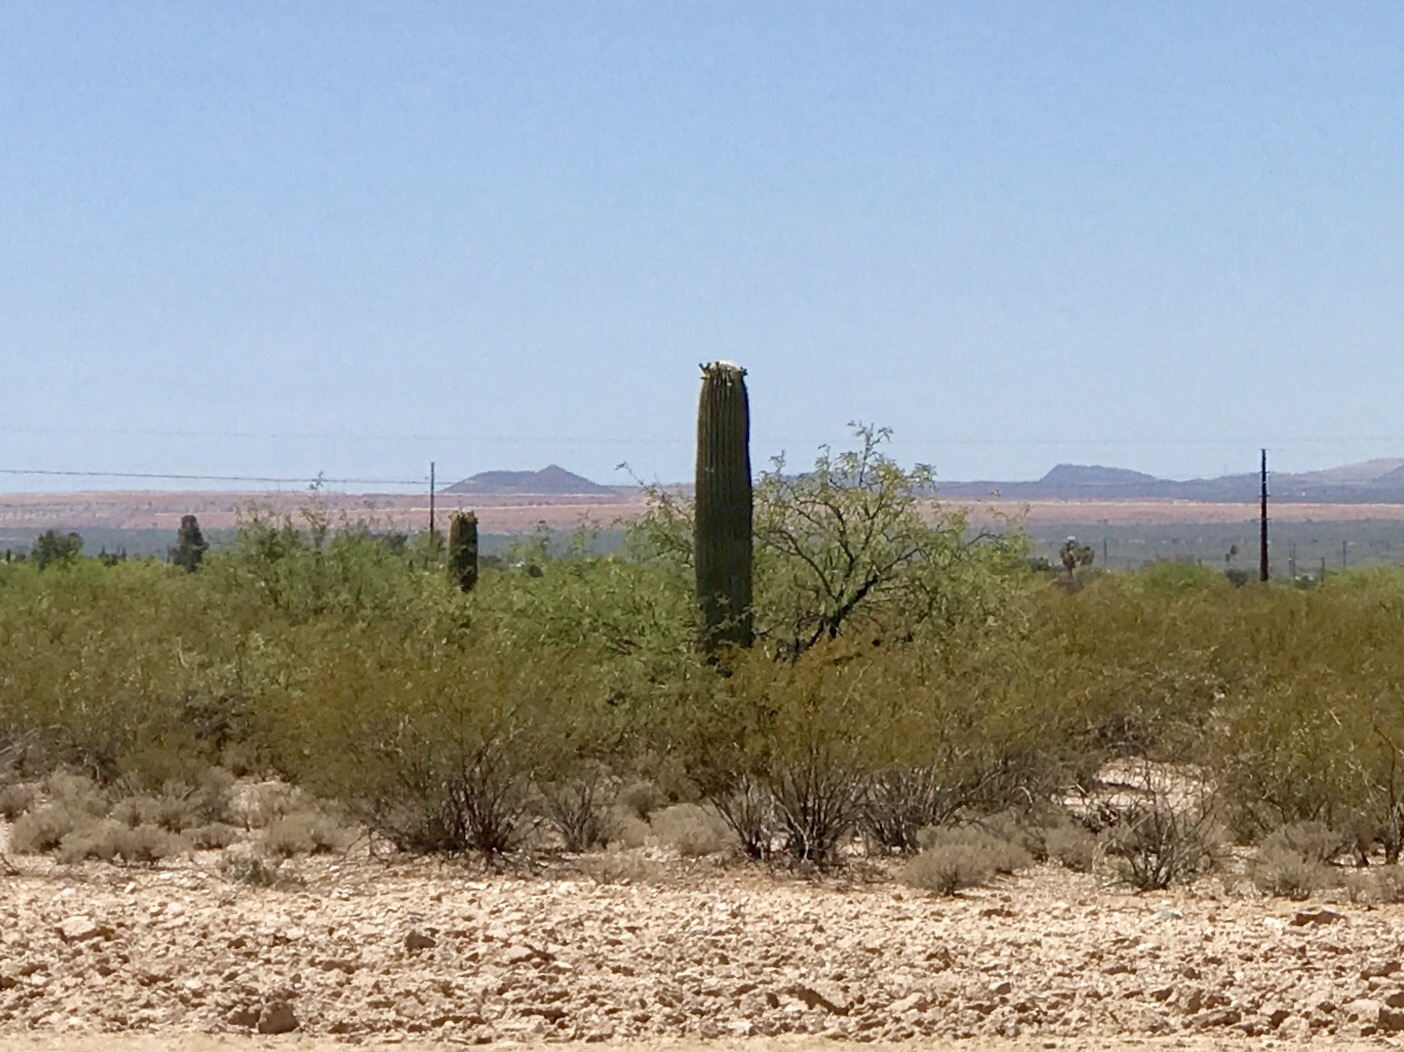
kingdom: Plantae
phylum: Tracheophyta
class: Magnoliopsida
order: Caryophyllales
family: Cactaceae
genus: Carnegiea
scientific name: Carnegiea gigantea
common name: Saguaro
